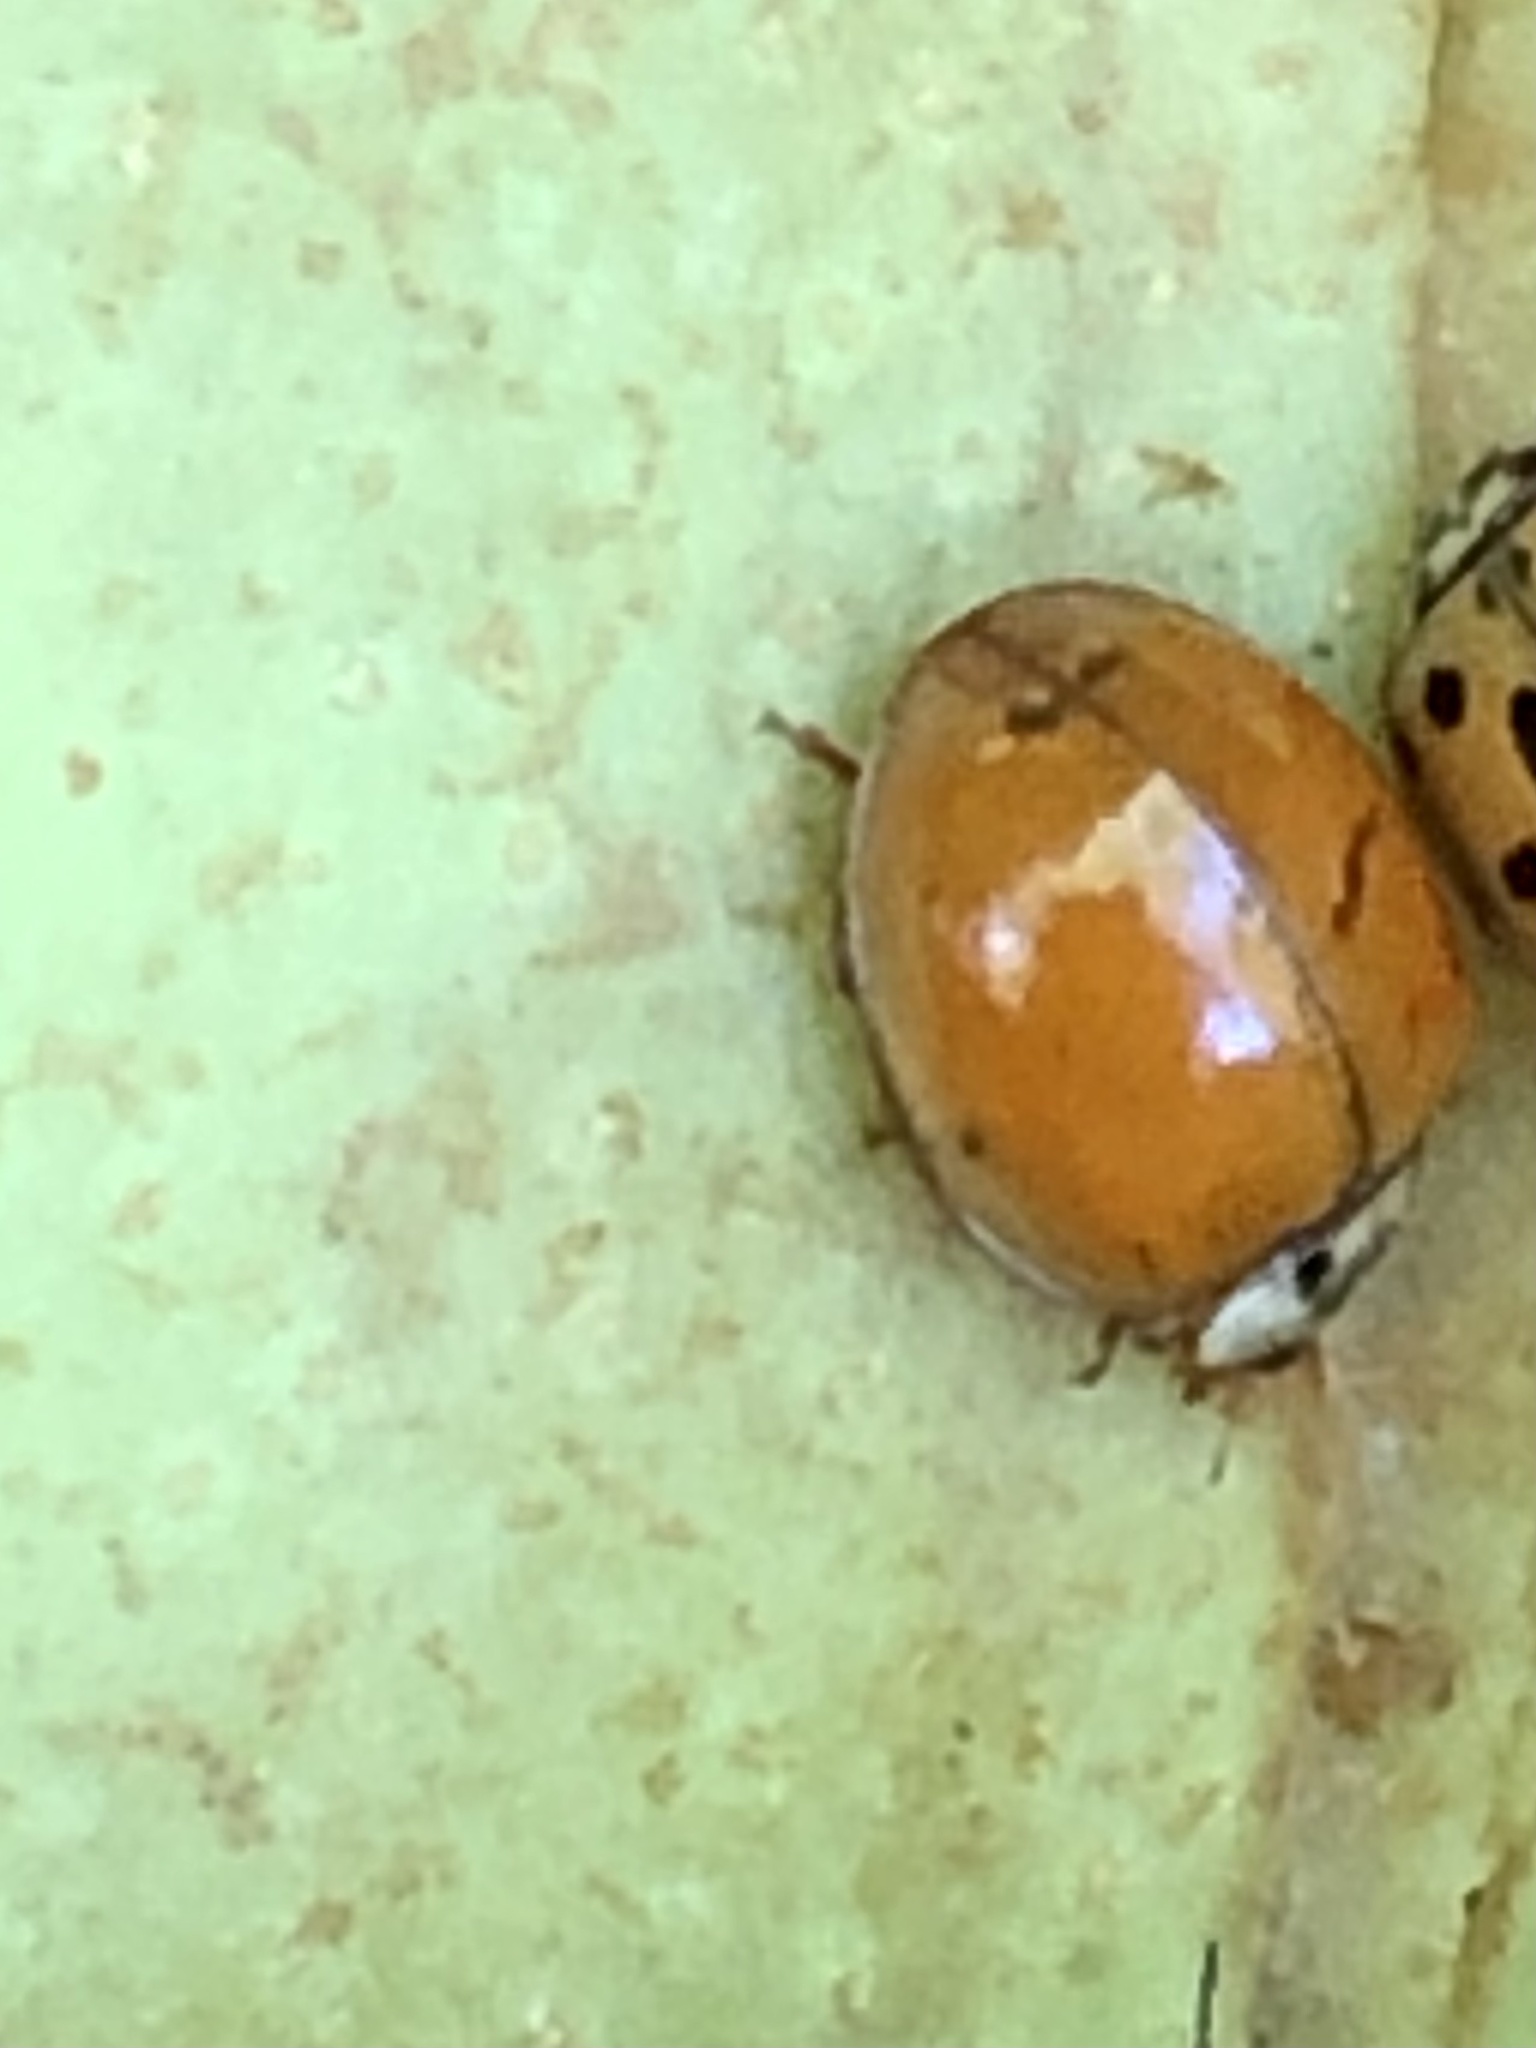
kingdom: Animalia
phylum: Arthropoda
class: Insecta
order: Coleoptera
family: Coccinellidae
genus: Harmonia
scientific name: Harmonia axyridis
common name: Harlequin ladybird
